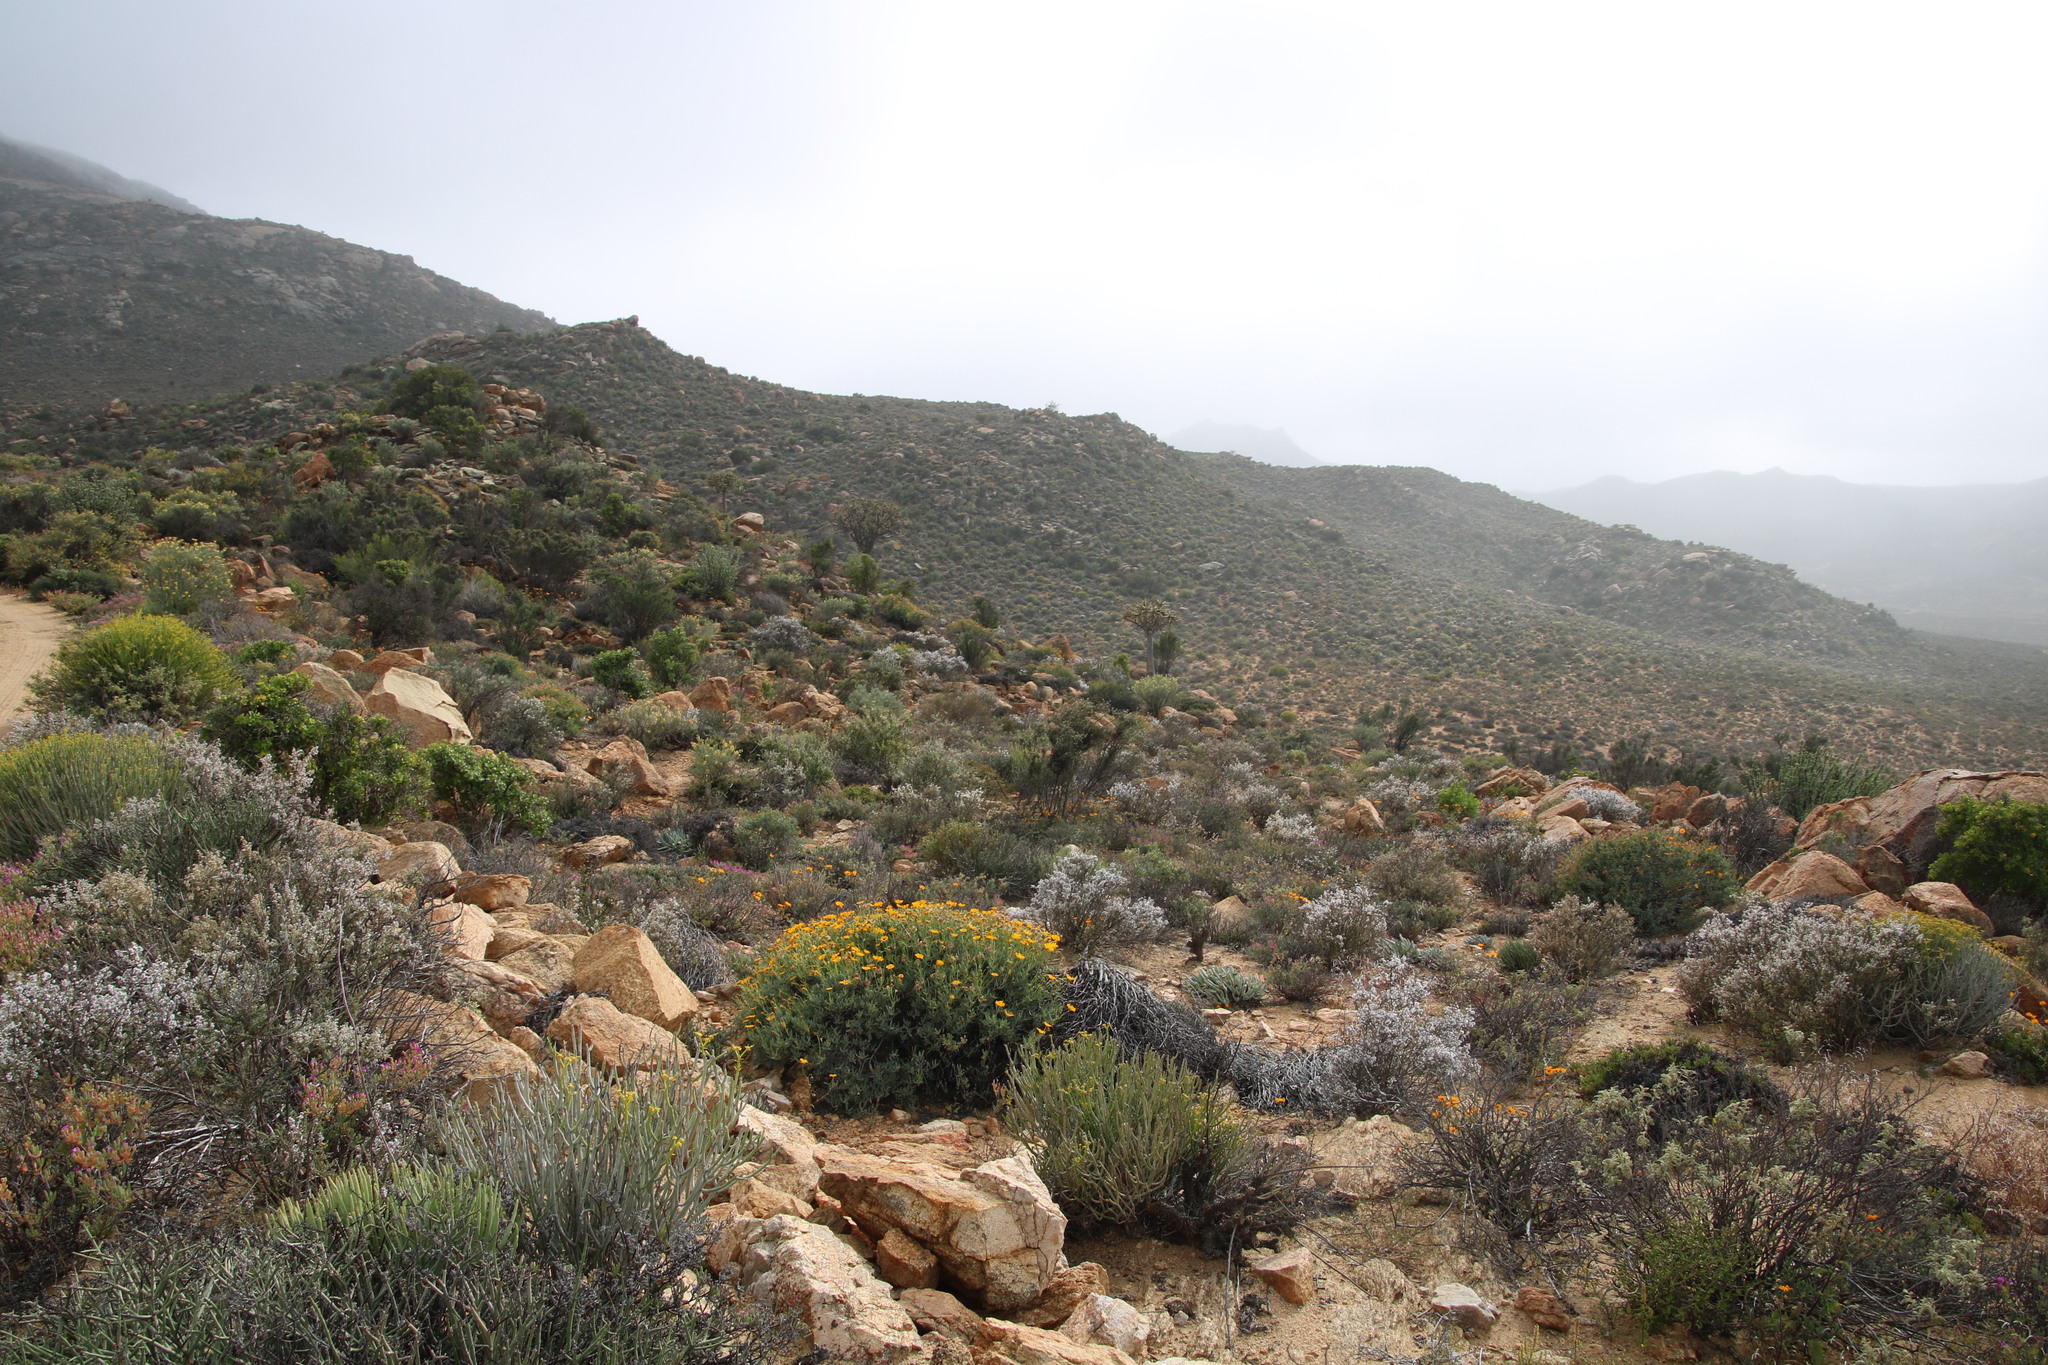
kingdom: Plantae
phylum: Tracheophyta
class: Magnoliopsida
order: Asterales
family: Asteraceae
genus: Osteospermum
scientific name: Osteospermum oppositifolium
